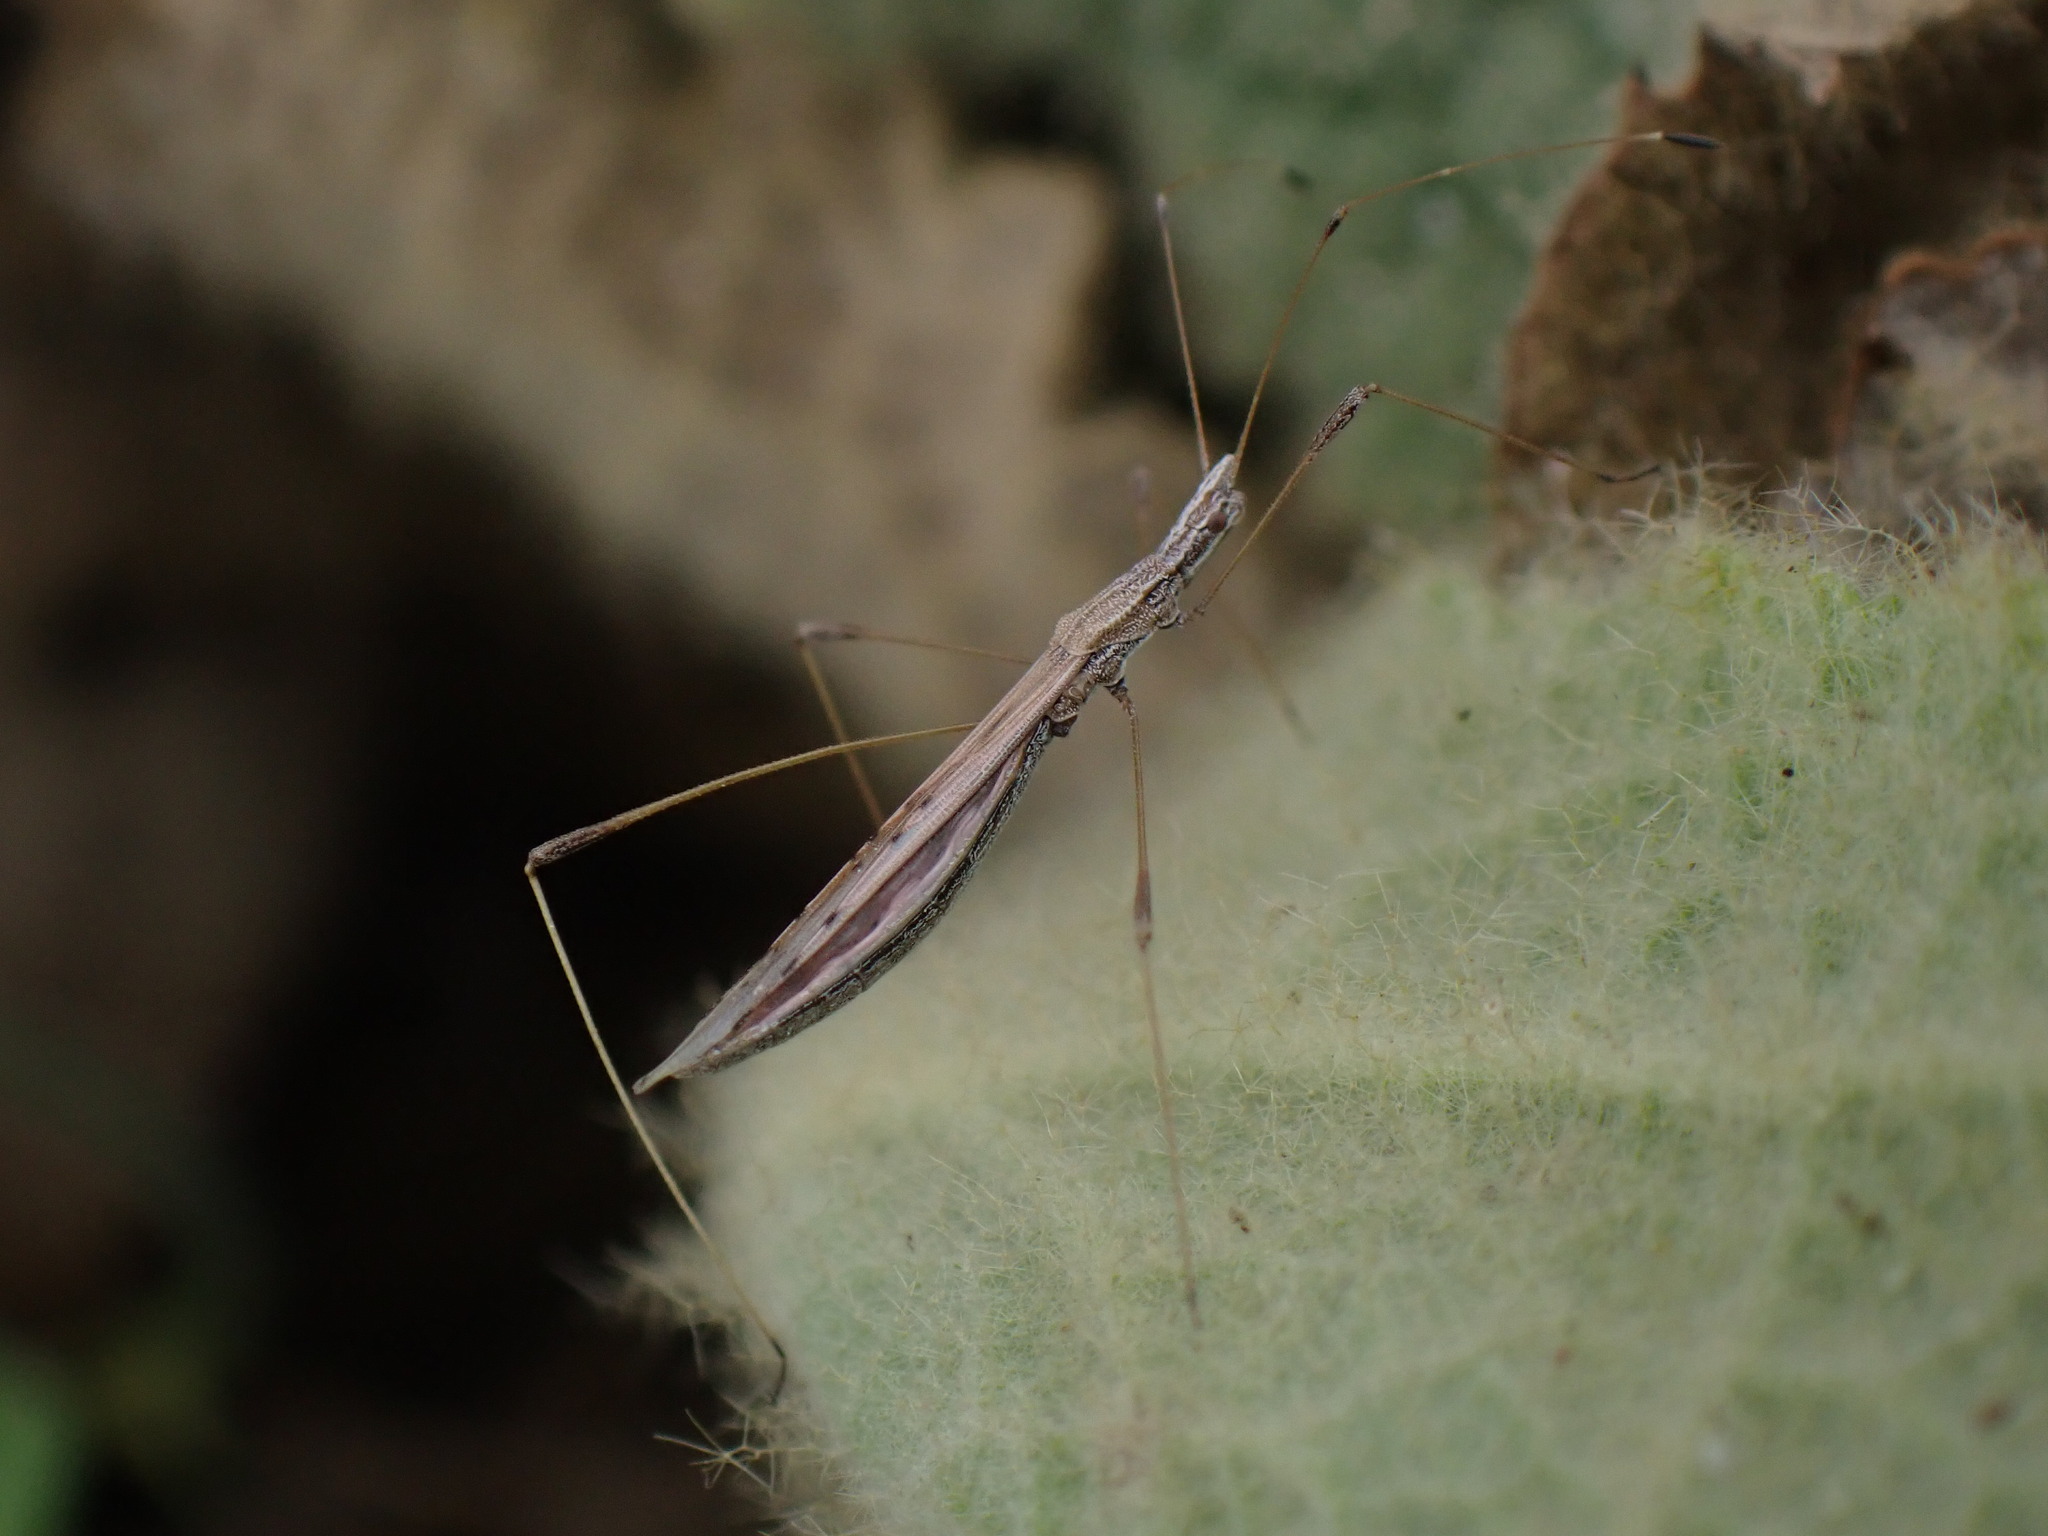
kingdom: Animalia
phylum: Arthropoda
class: Insecta
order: Hemiptera
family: Berytidae
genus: Neides
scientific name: Neides tipularius
